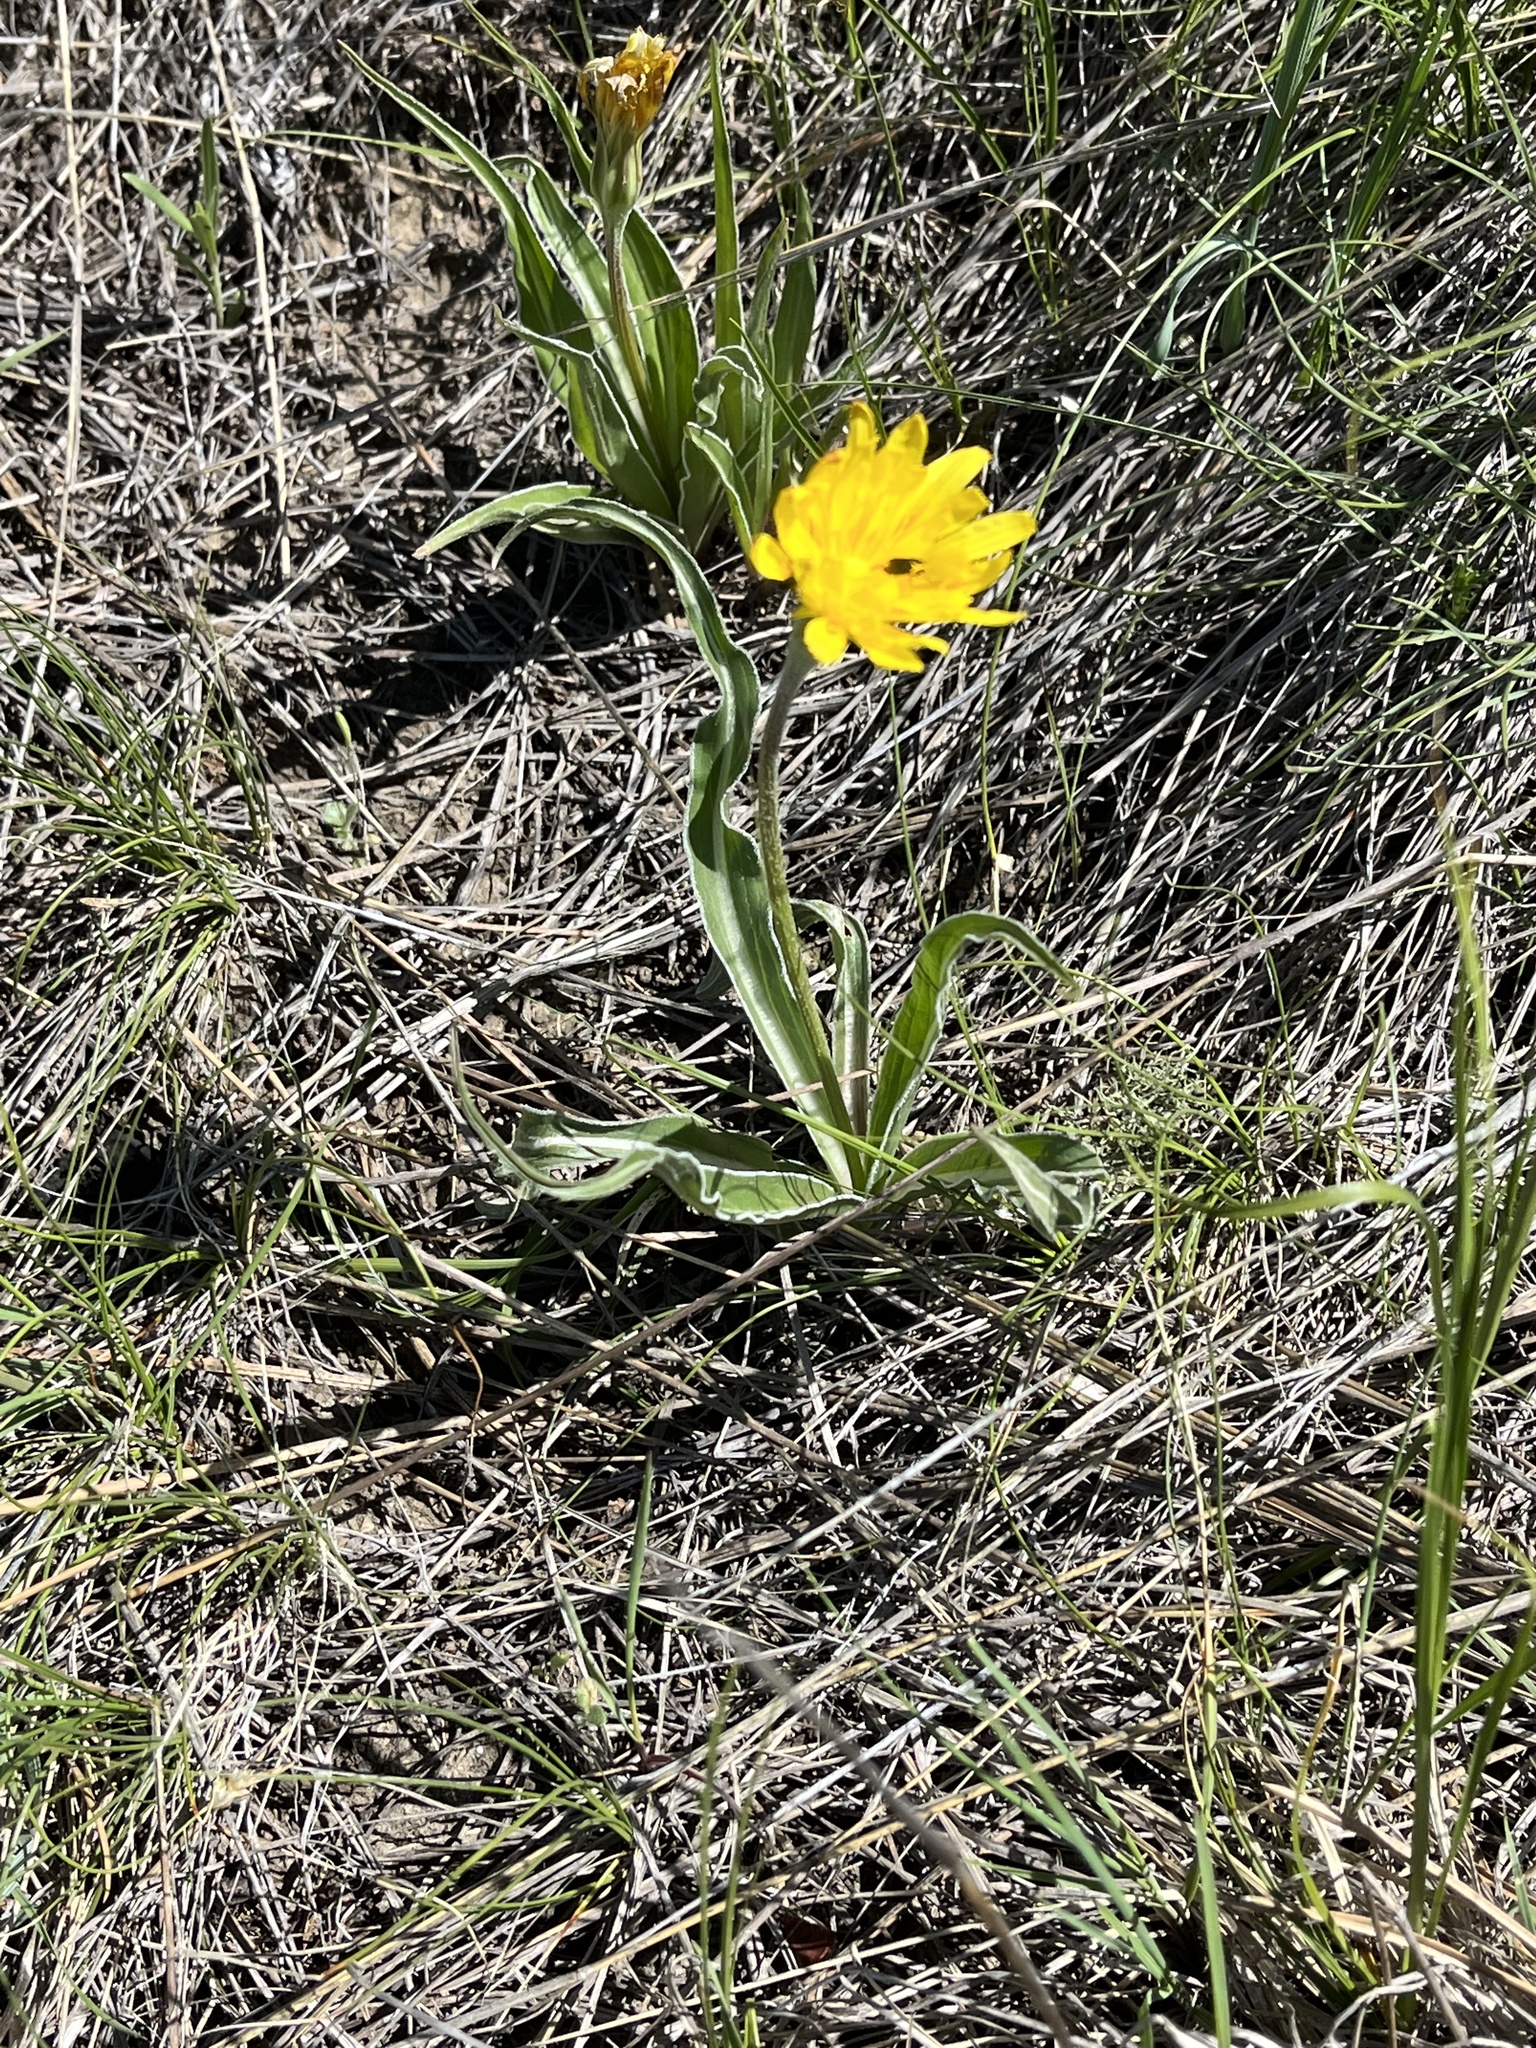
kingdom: Plantae
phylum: Tracheophyta
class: Magnoliopsida
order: Asterales
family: Asteraceae
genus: Microseris
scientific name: Microseris cuspidata
